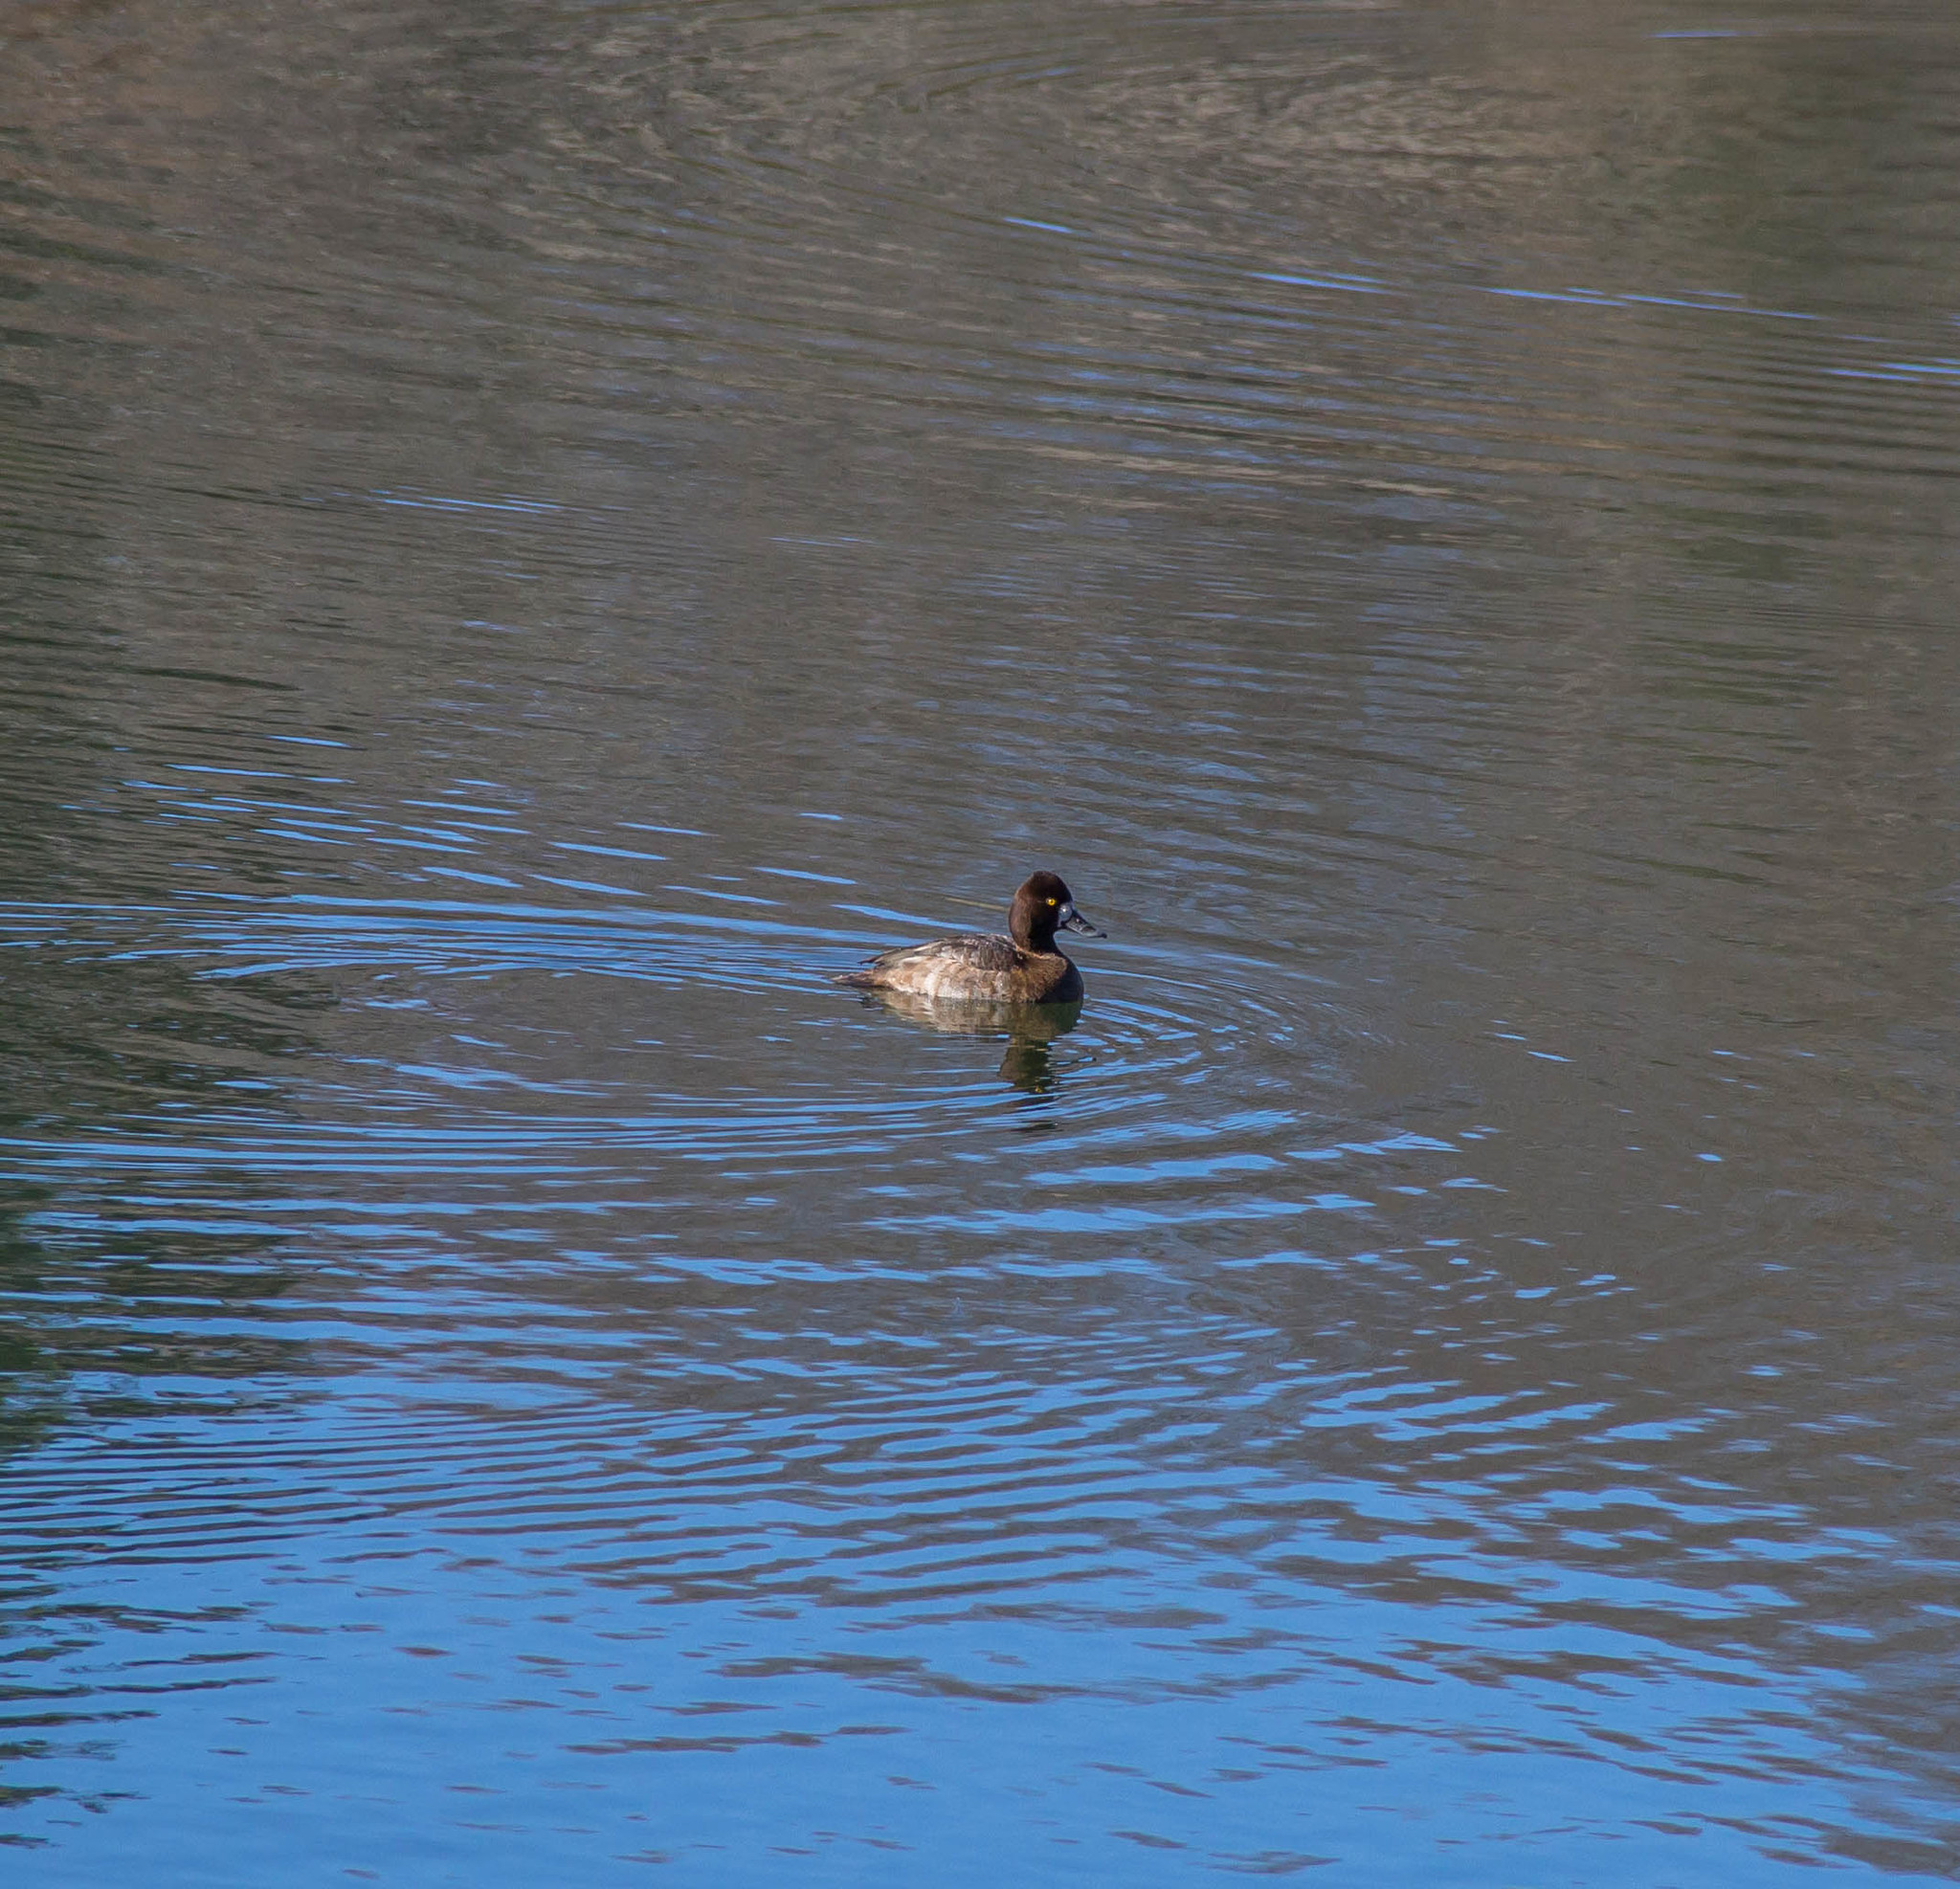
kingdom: Animalia
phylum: Chordata
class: Aves
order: Anseriformes
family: Anatidae
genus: Aythya
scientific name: Aythya affinis
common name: Lesser scaup
